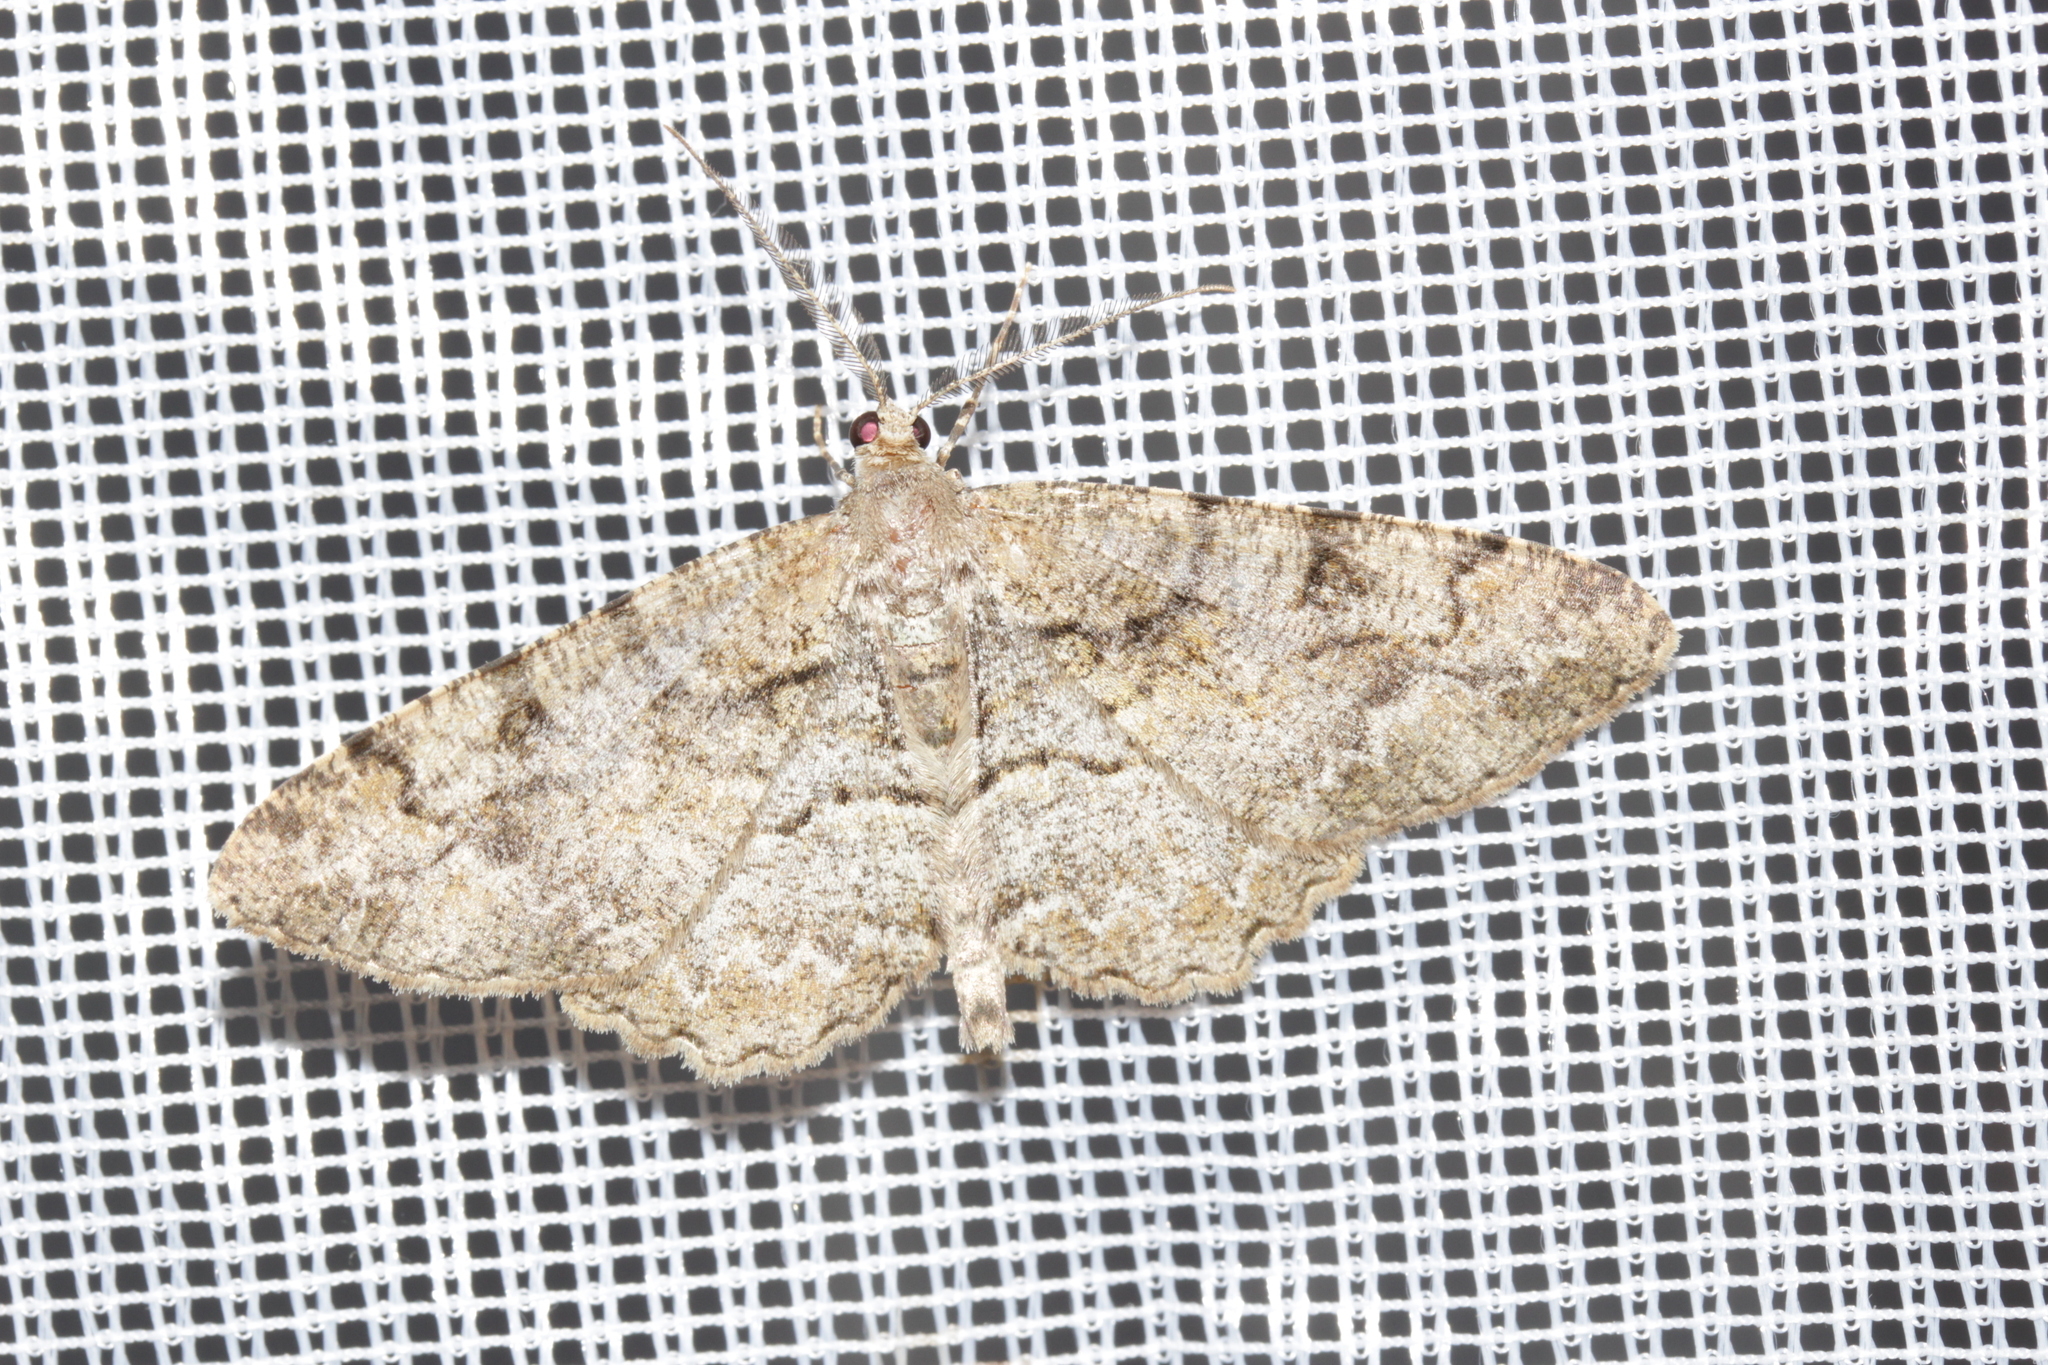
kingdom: Animalia
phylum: Arthropoda
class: Insecta
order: Lepidoptera
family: Geometridae
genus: Alcis
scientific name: Alcis repandata
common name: Mottled beauty
